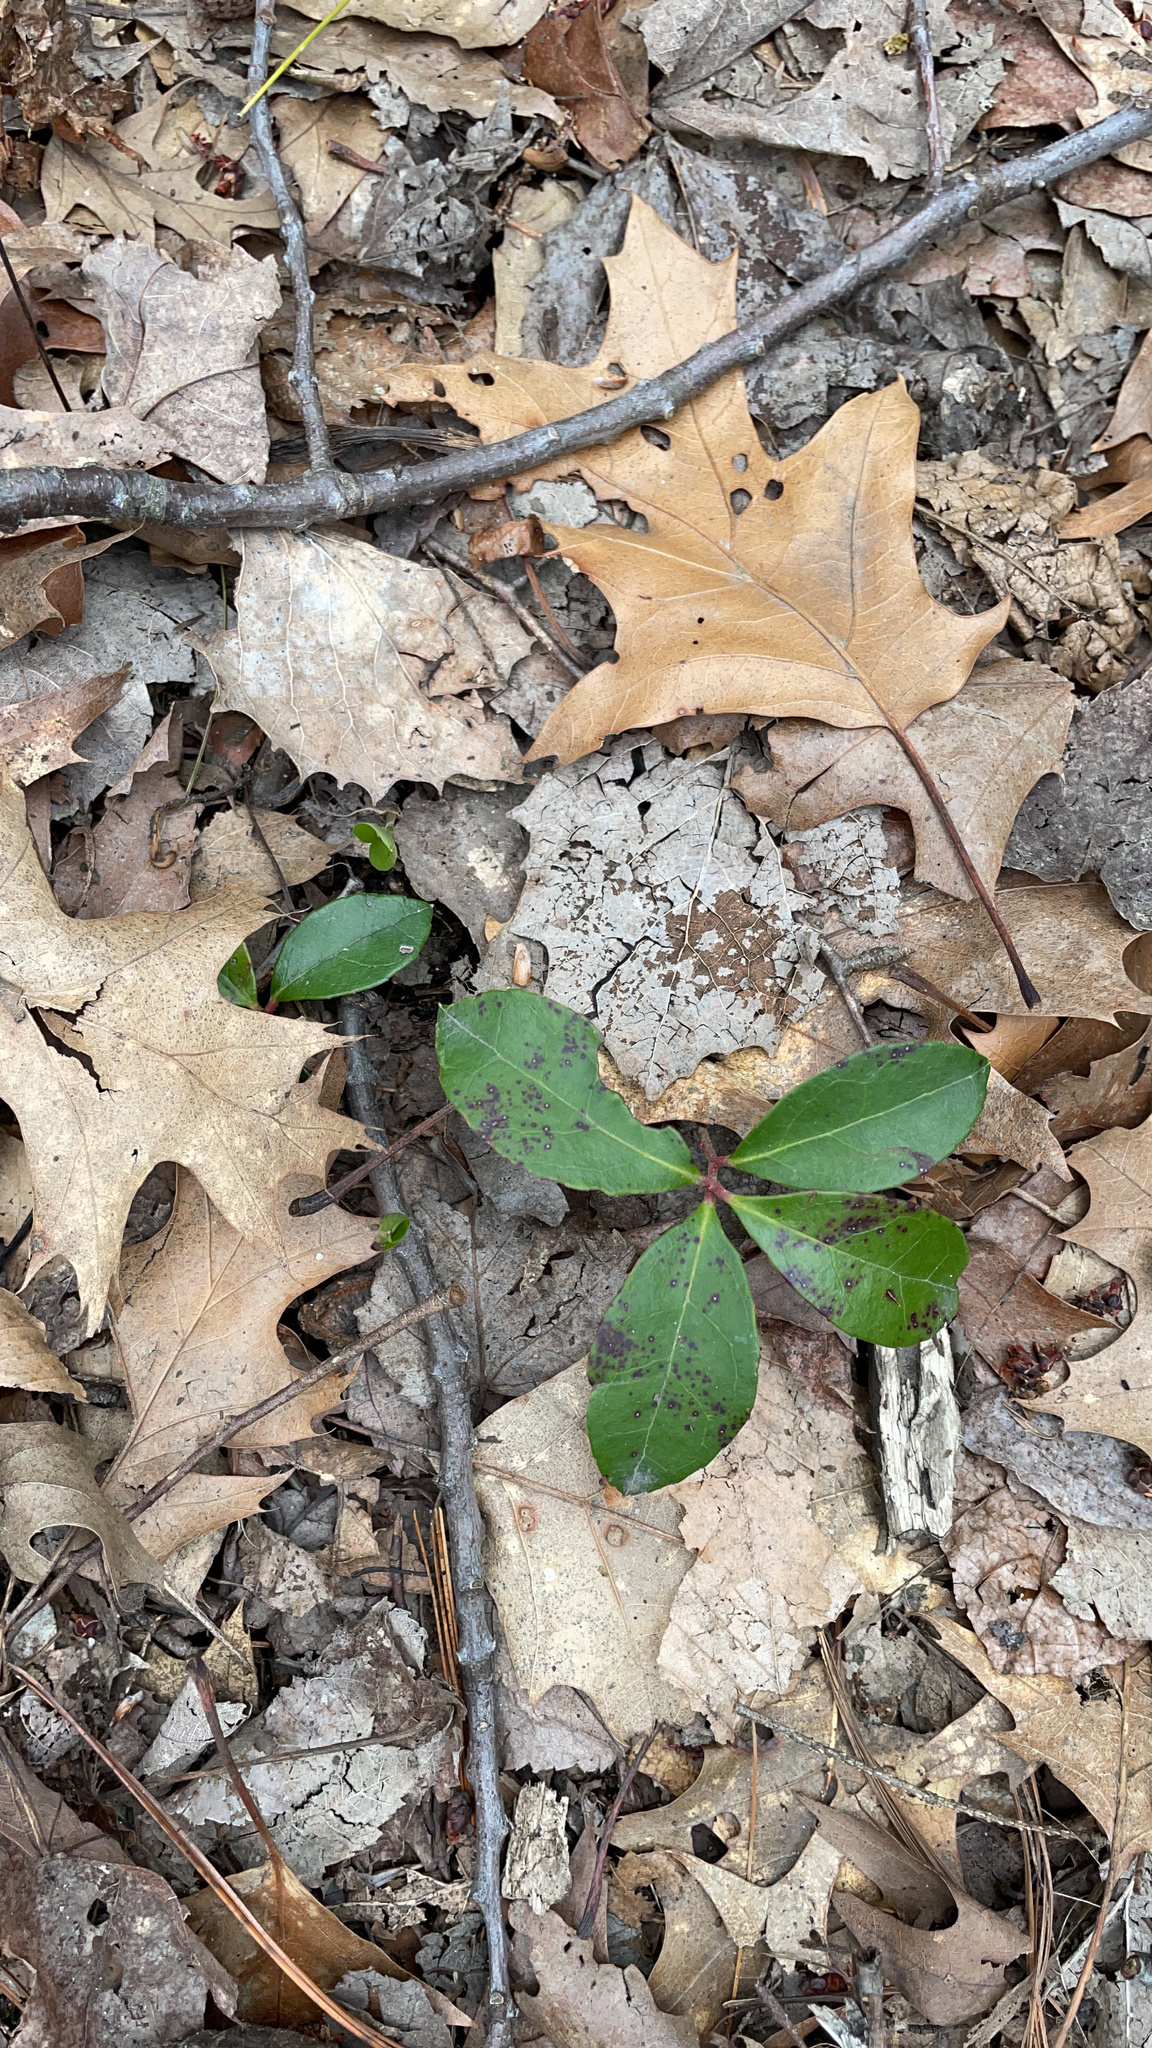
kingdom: Plantae
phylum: Tracheophyta
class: Magnoliopsida
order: Ericales
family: Ericaceae
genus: Gaultheria
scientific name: Gaultheria procumbens
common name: Checkerberry
